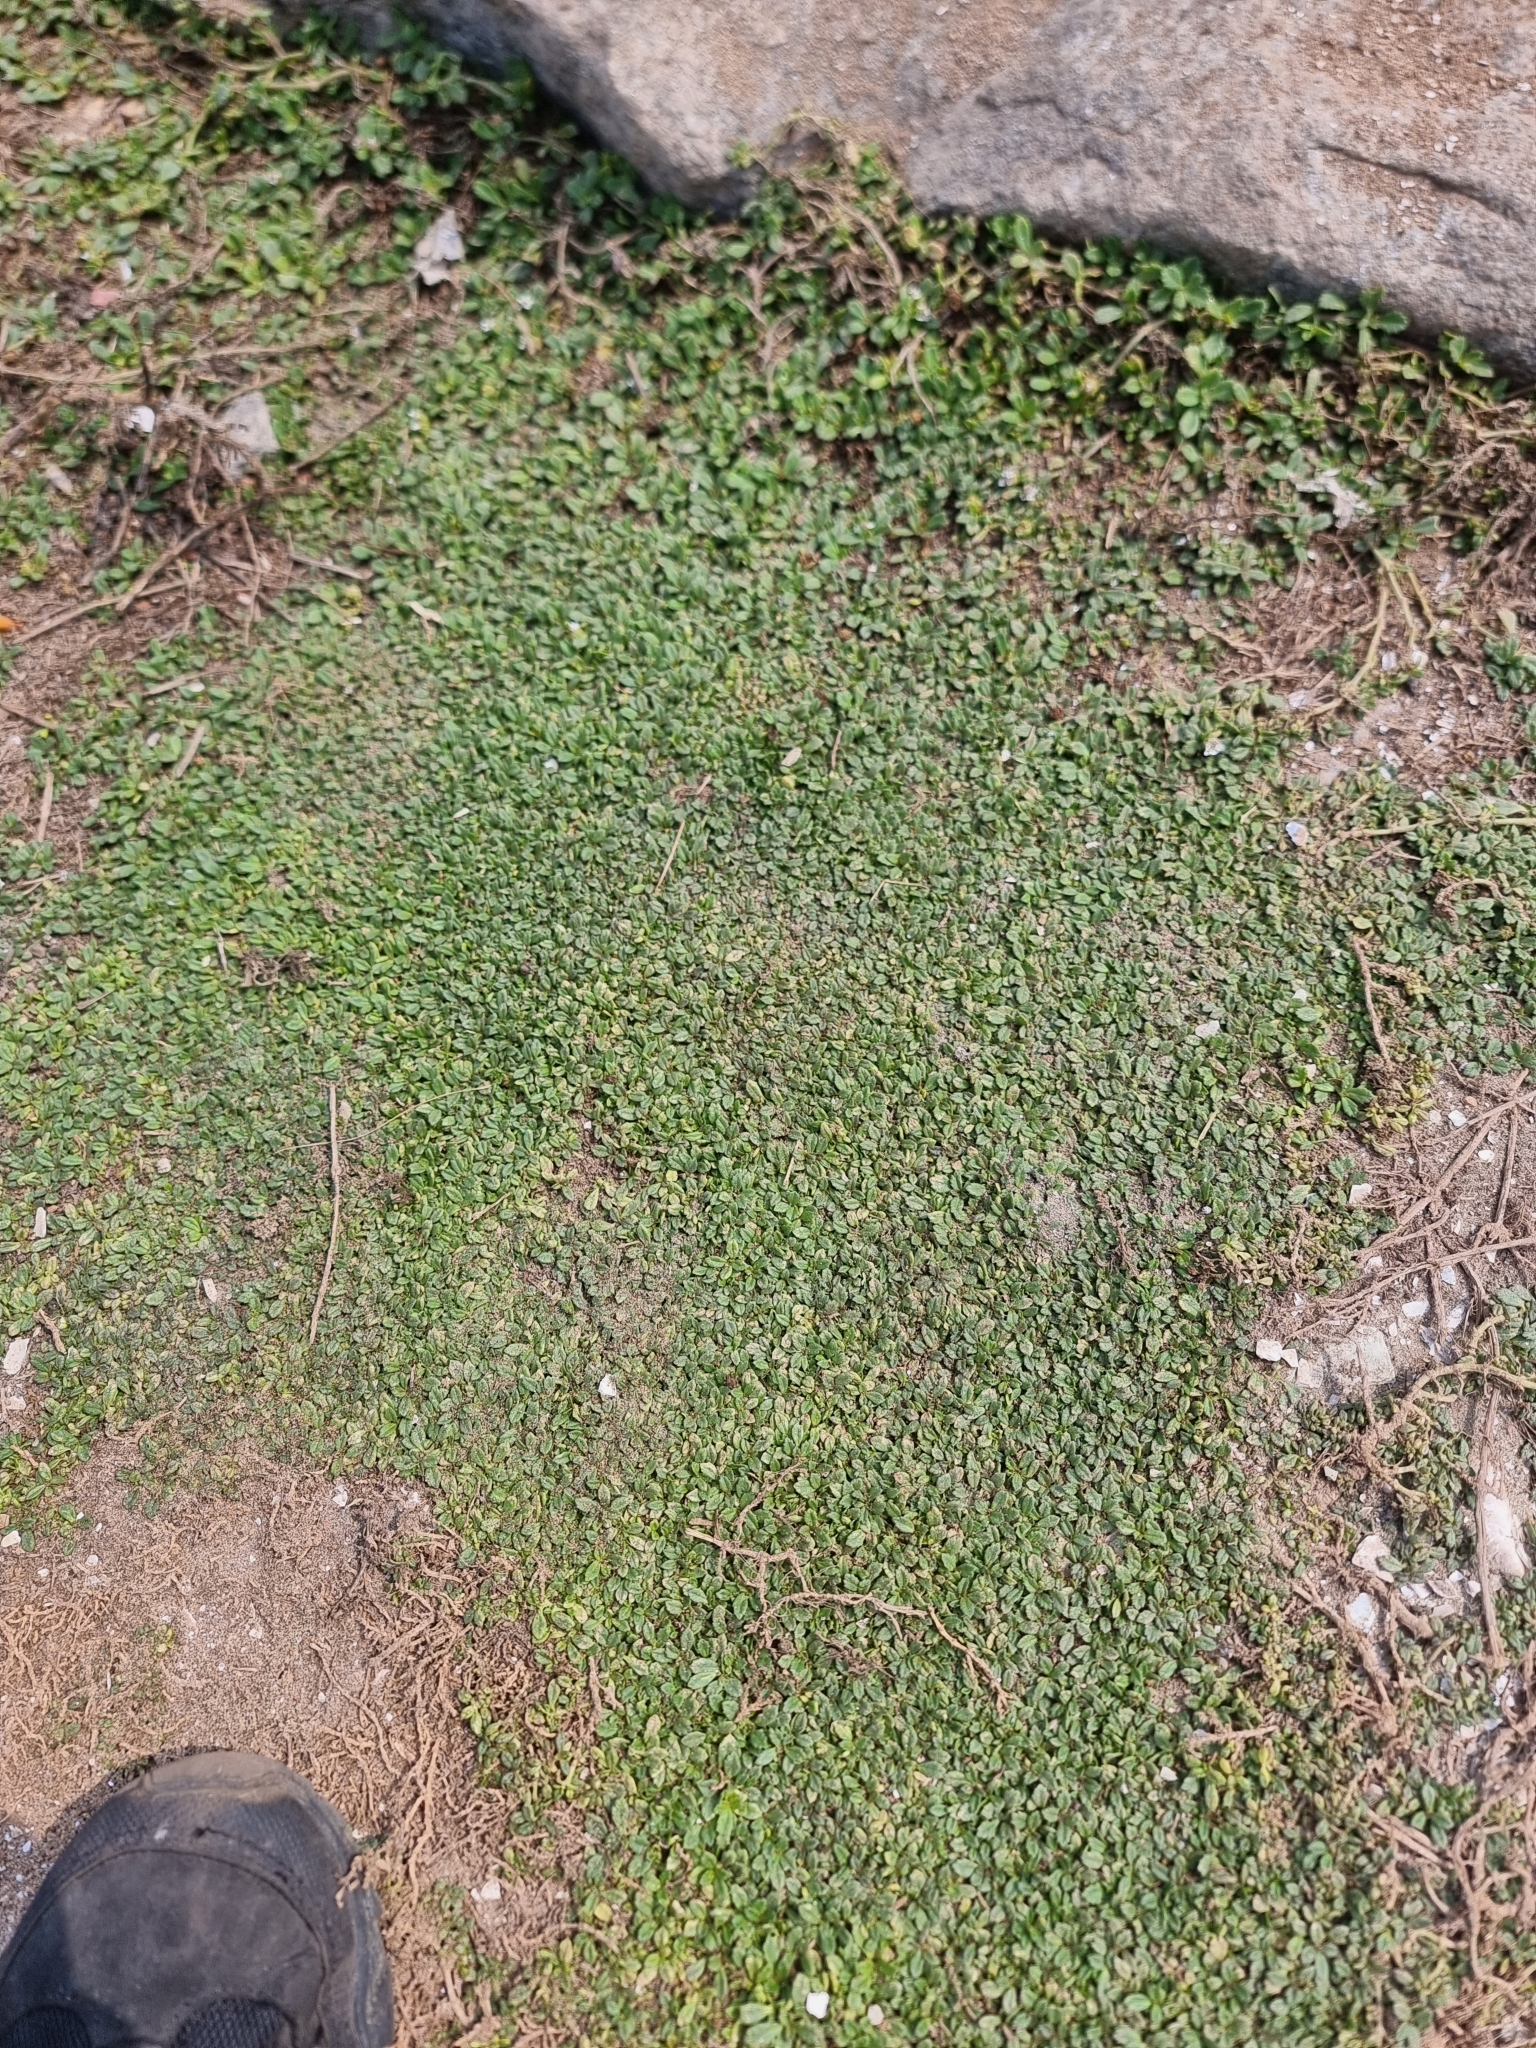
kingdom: Plantae
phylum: Tracheophyta
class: Magnoliopsida
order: Lamiales
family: Verbenaceae
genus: Phyla
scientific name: Phyla nodiflora
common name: Frogfruit
